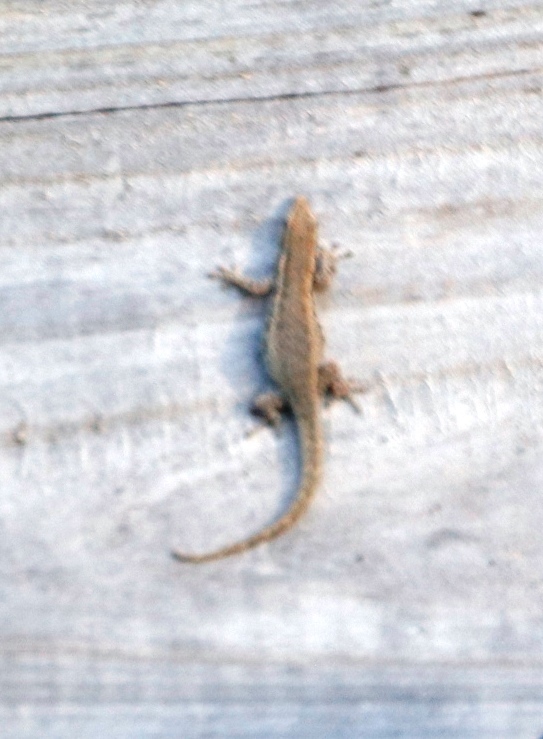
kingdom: Animalia
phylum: Chordata
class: Squamata
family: Gekkonidae
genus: Lygodactylus
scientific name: Lygodactylus capensis
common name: Cape dwarf gecko
